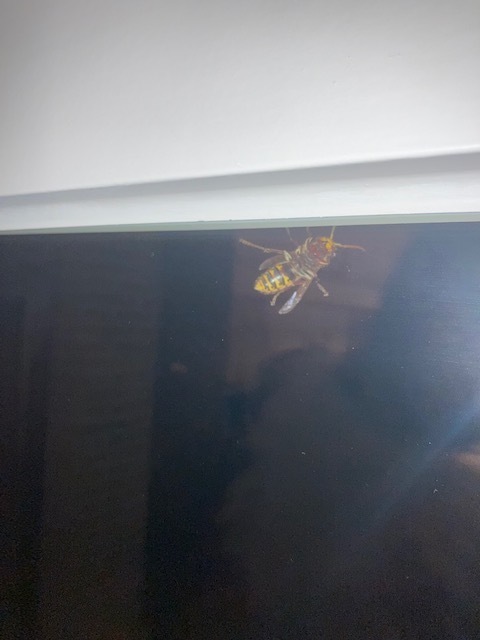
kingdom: Animalia
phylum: Arthropoda
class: Insecta
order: Hymenoptera
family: Vespidae
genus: Vespa
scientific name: Vespa crabro
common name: Hornet
